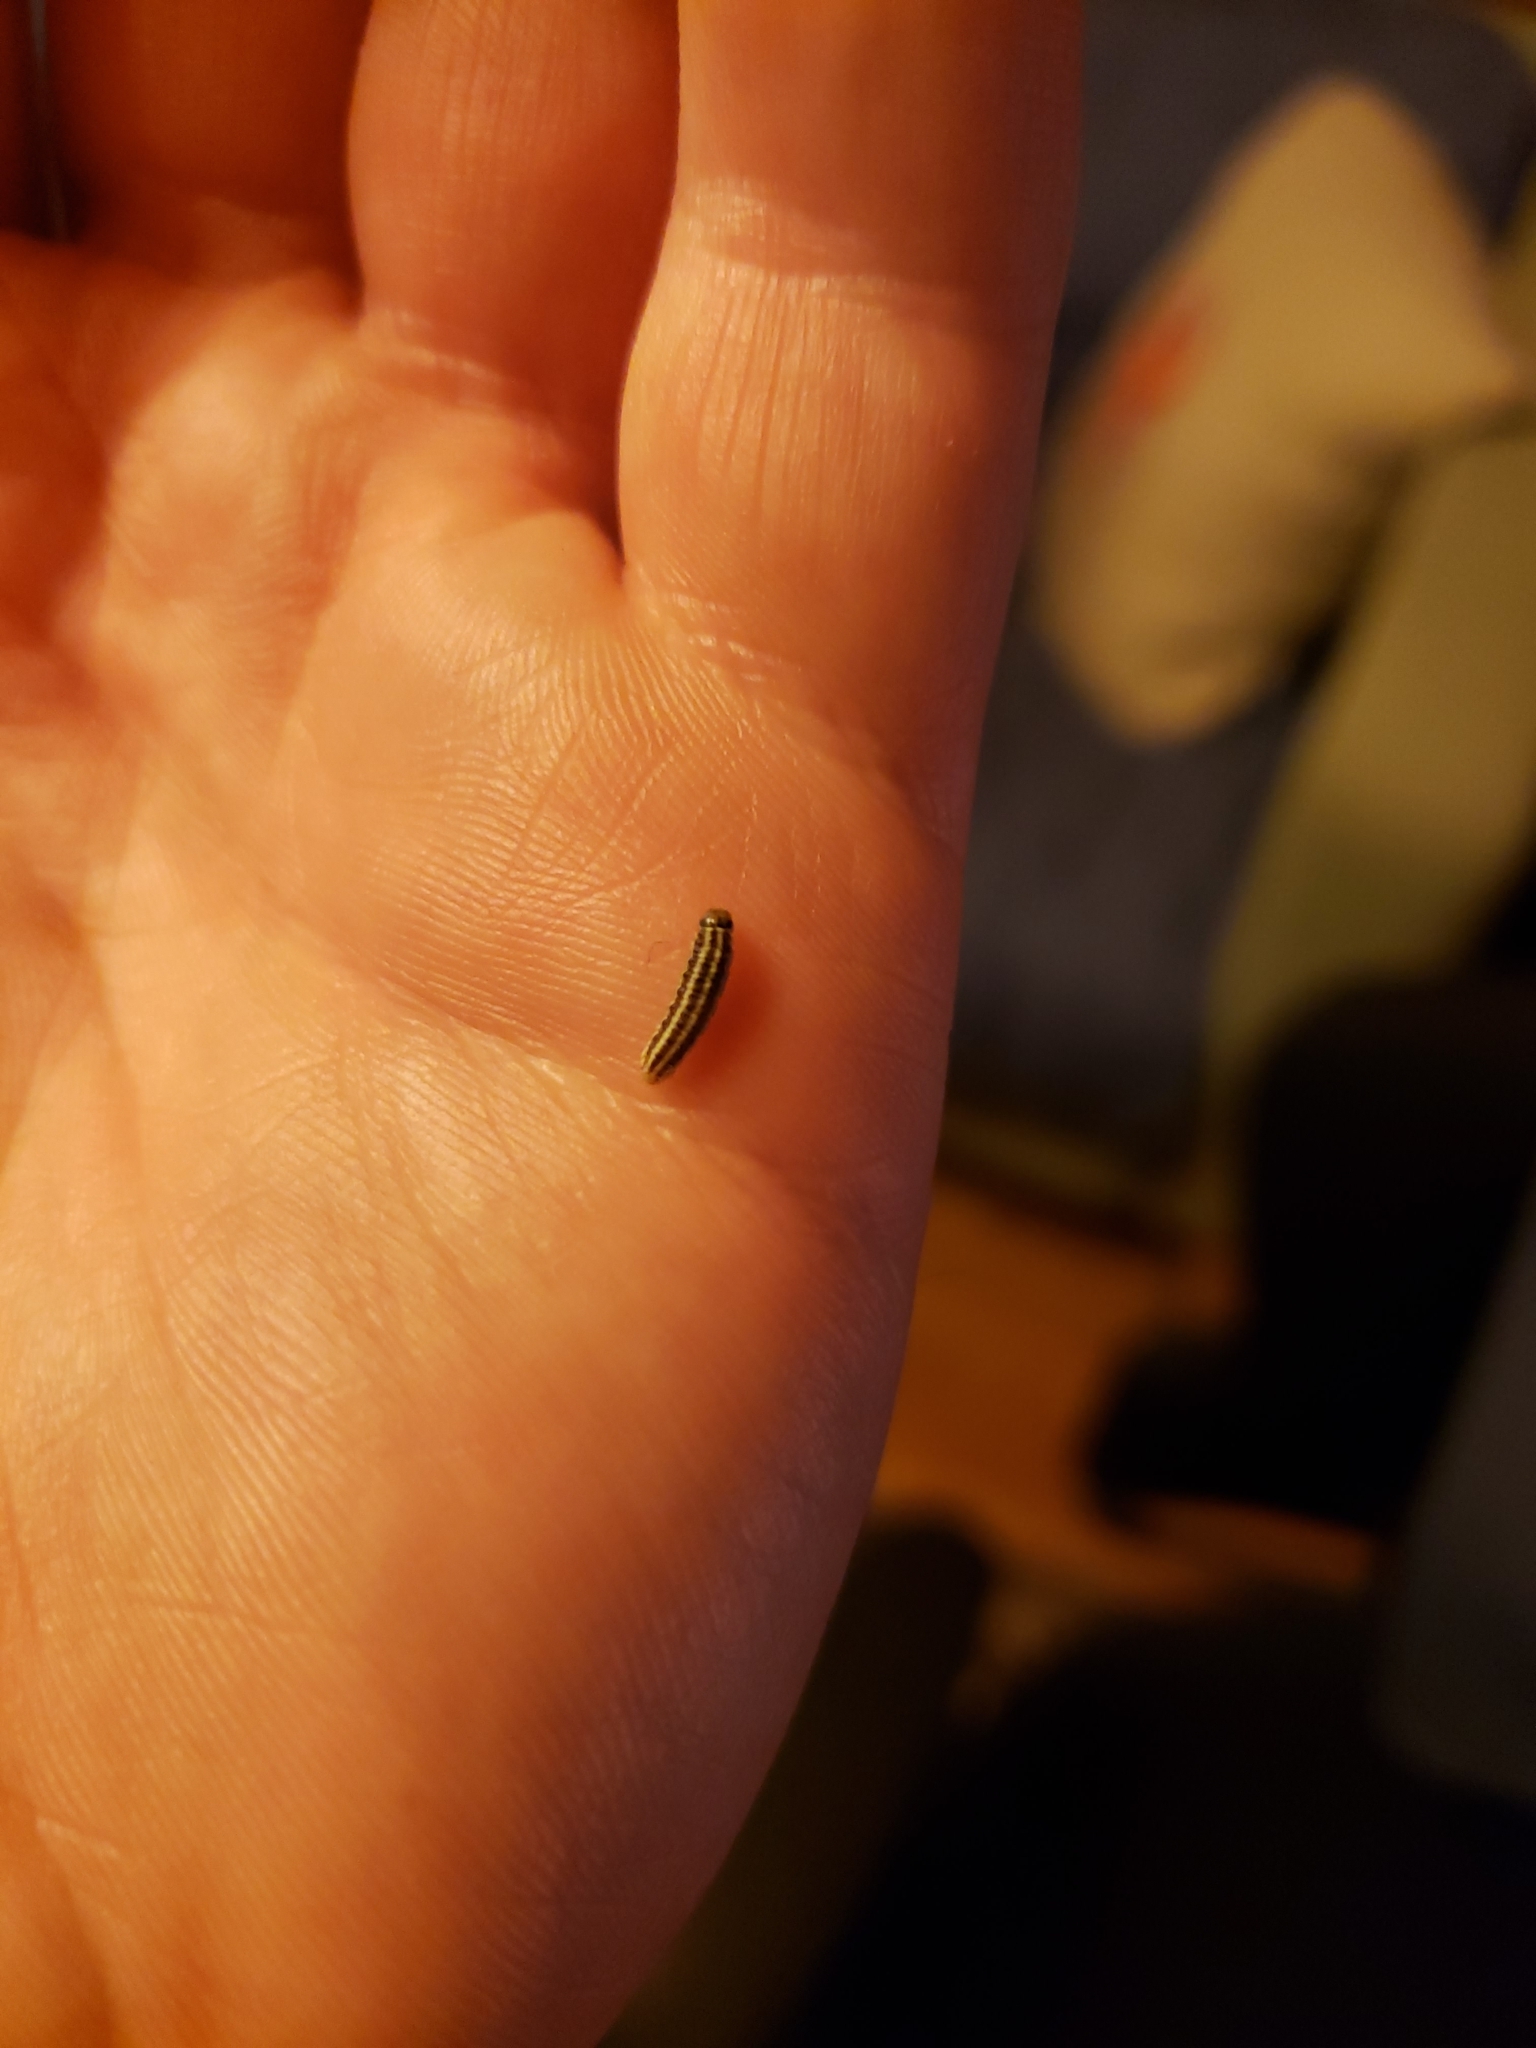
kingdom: Animalia
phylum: Arthropoda
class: Insecta
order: Lepidoptera
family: Pyralidae
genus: Homoeosoma
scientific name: Homoeosoma electella
